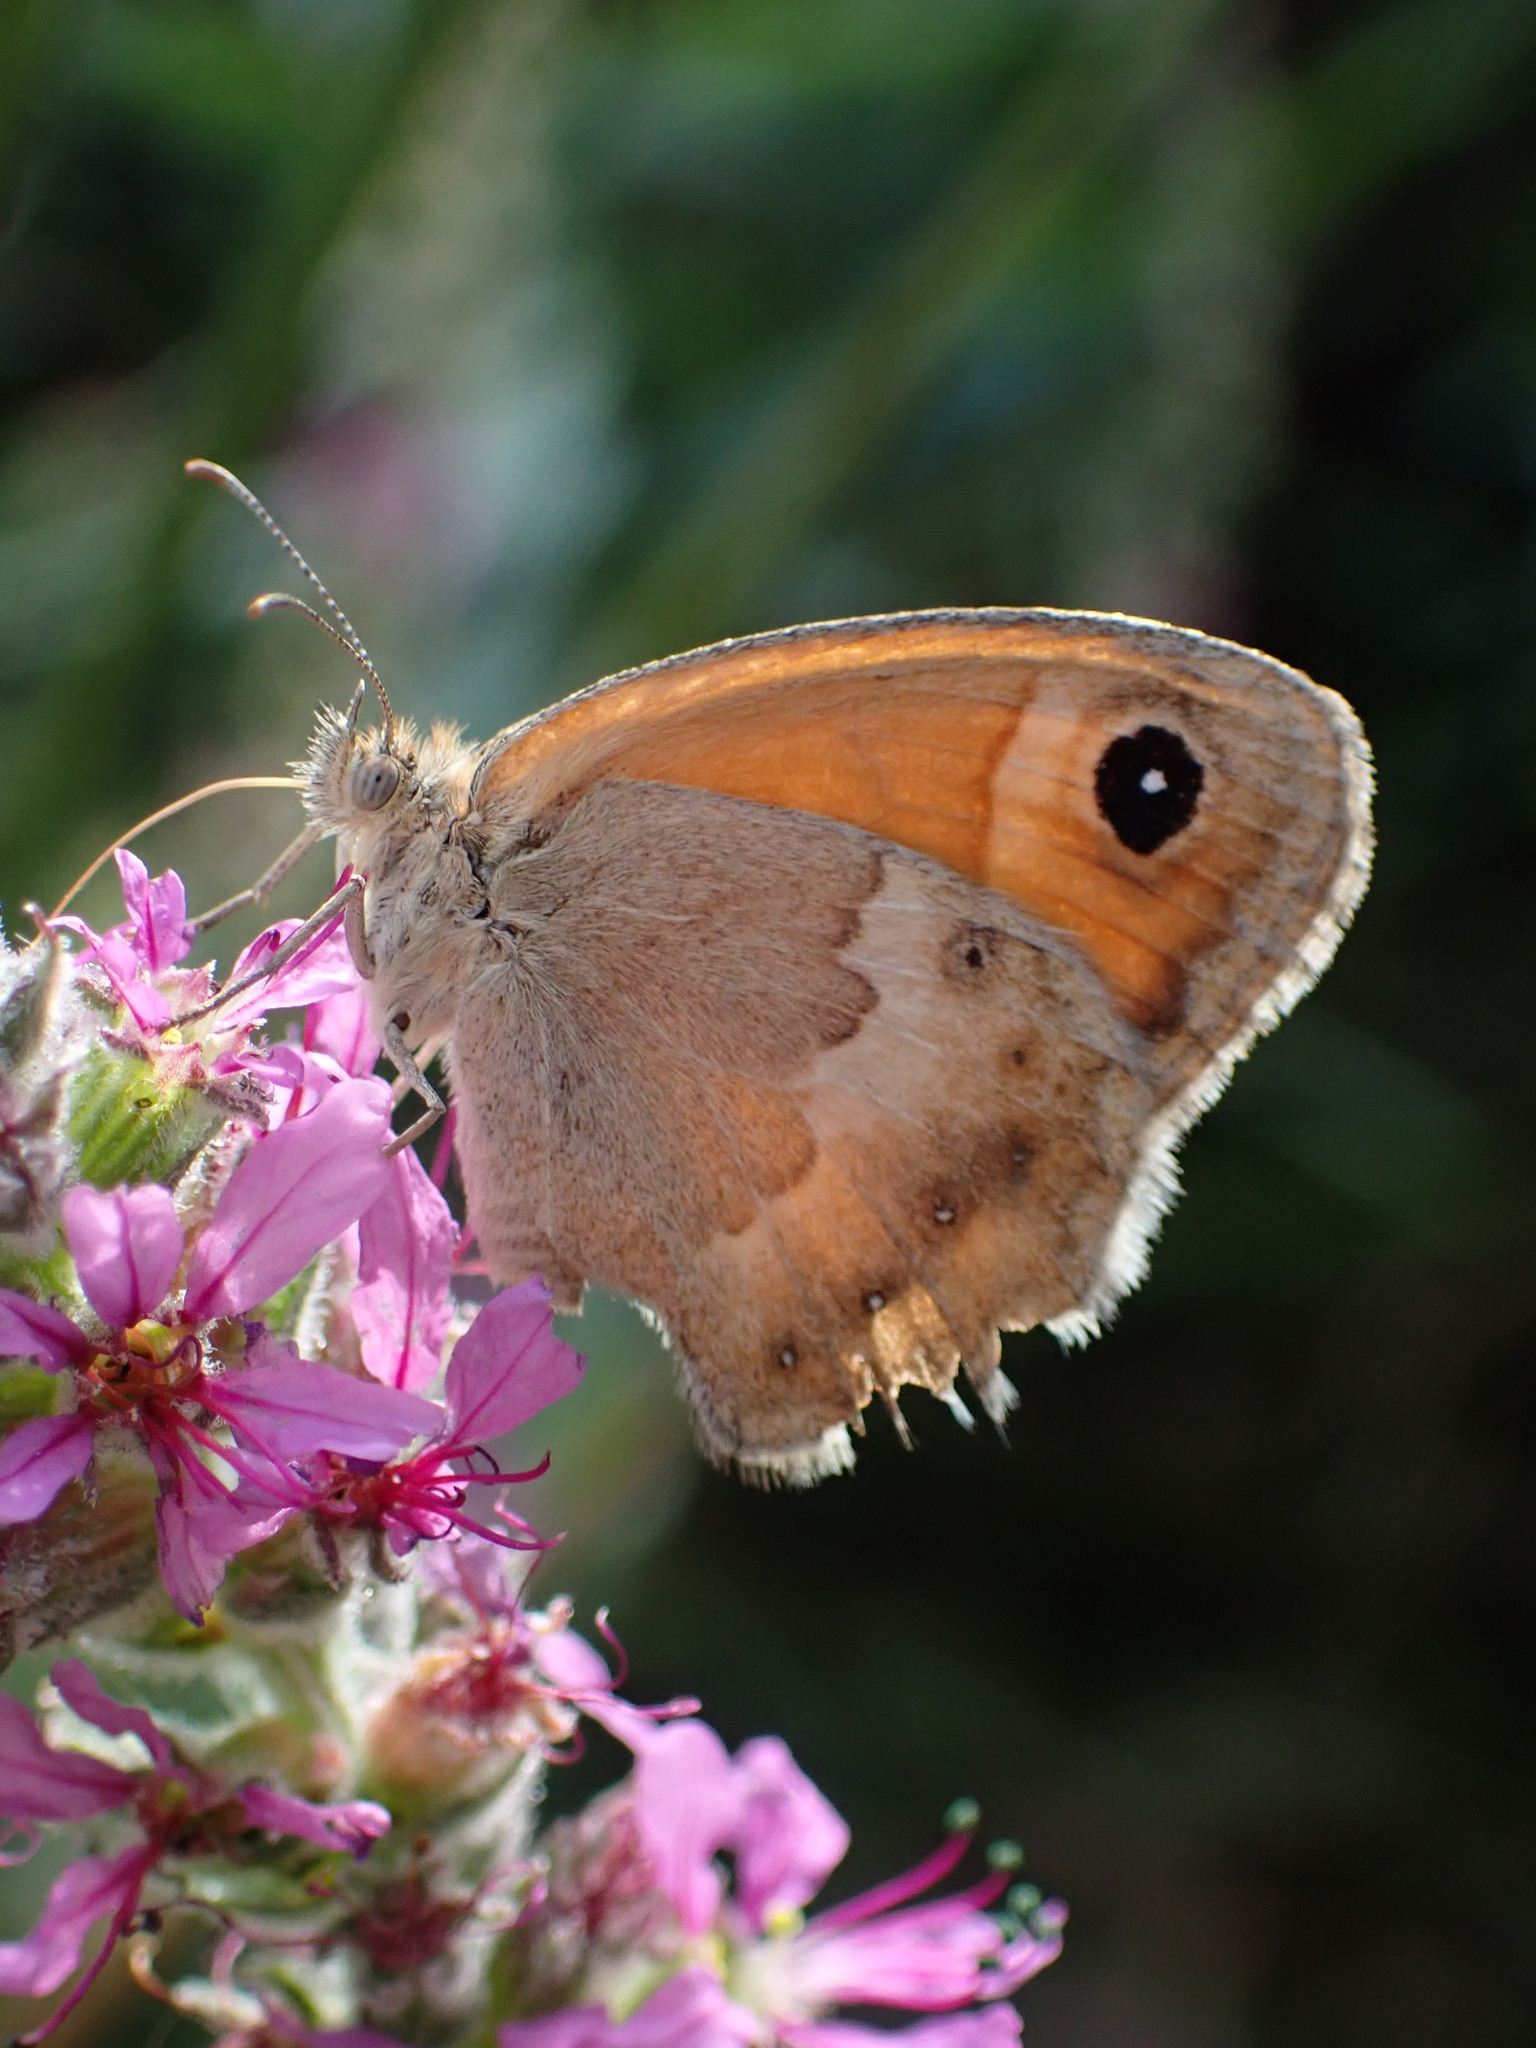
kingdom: Animalia
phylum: Arthropoda
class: Insecta
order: Lepidoptera
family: Nymphalidae
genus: Coenonympha
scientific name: Coenonympha pamphilus
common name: Small heath
